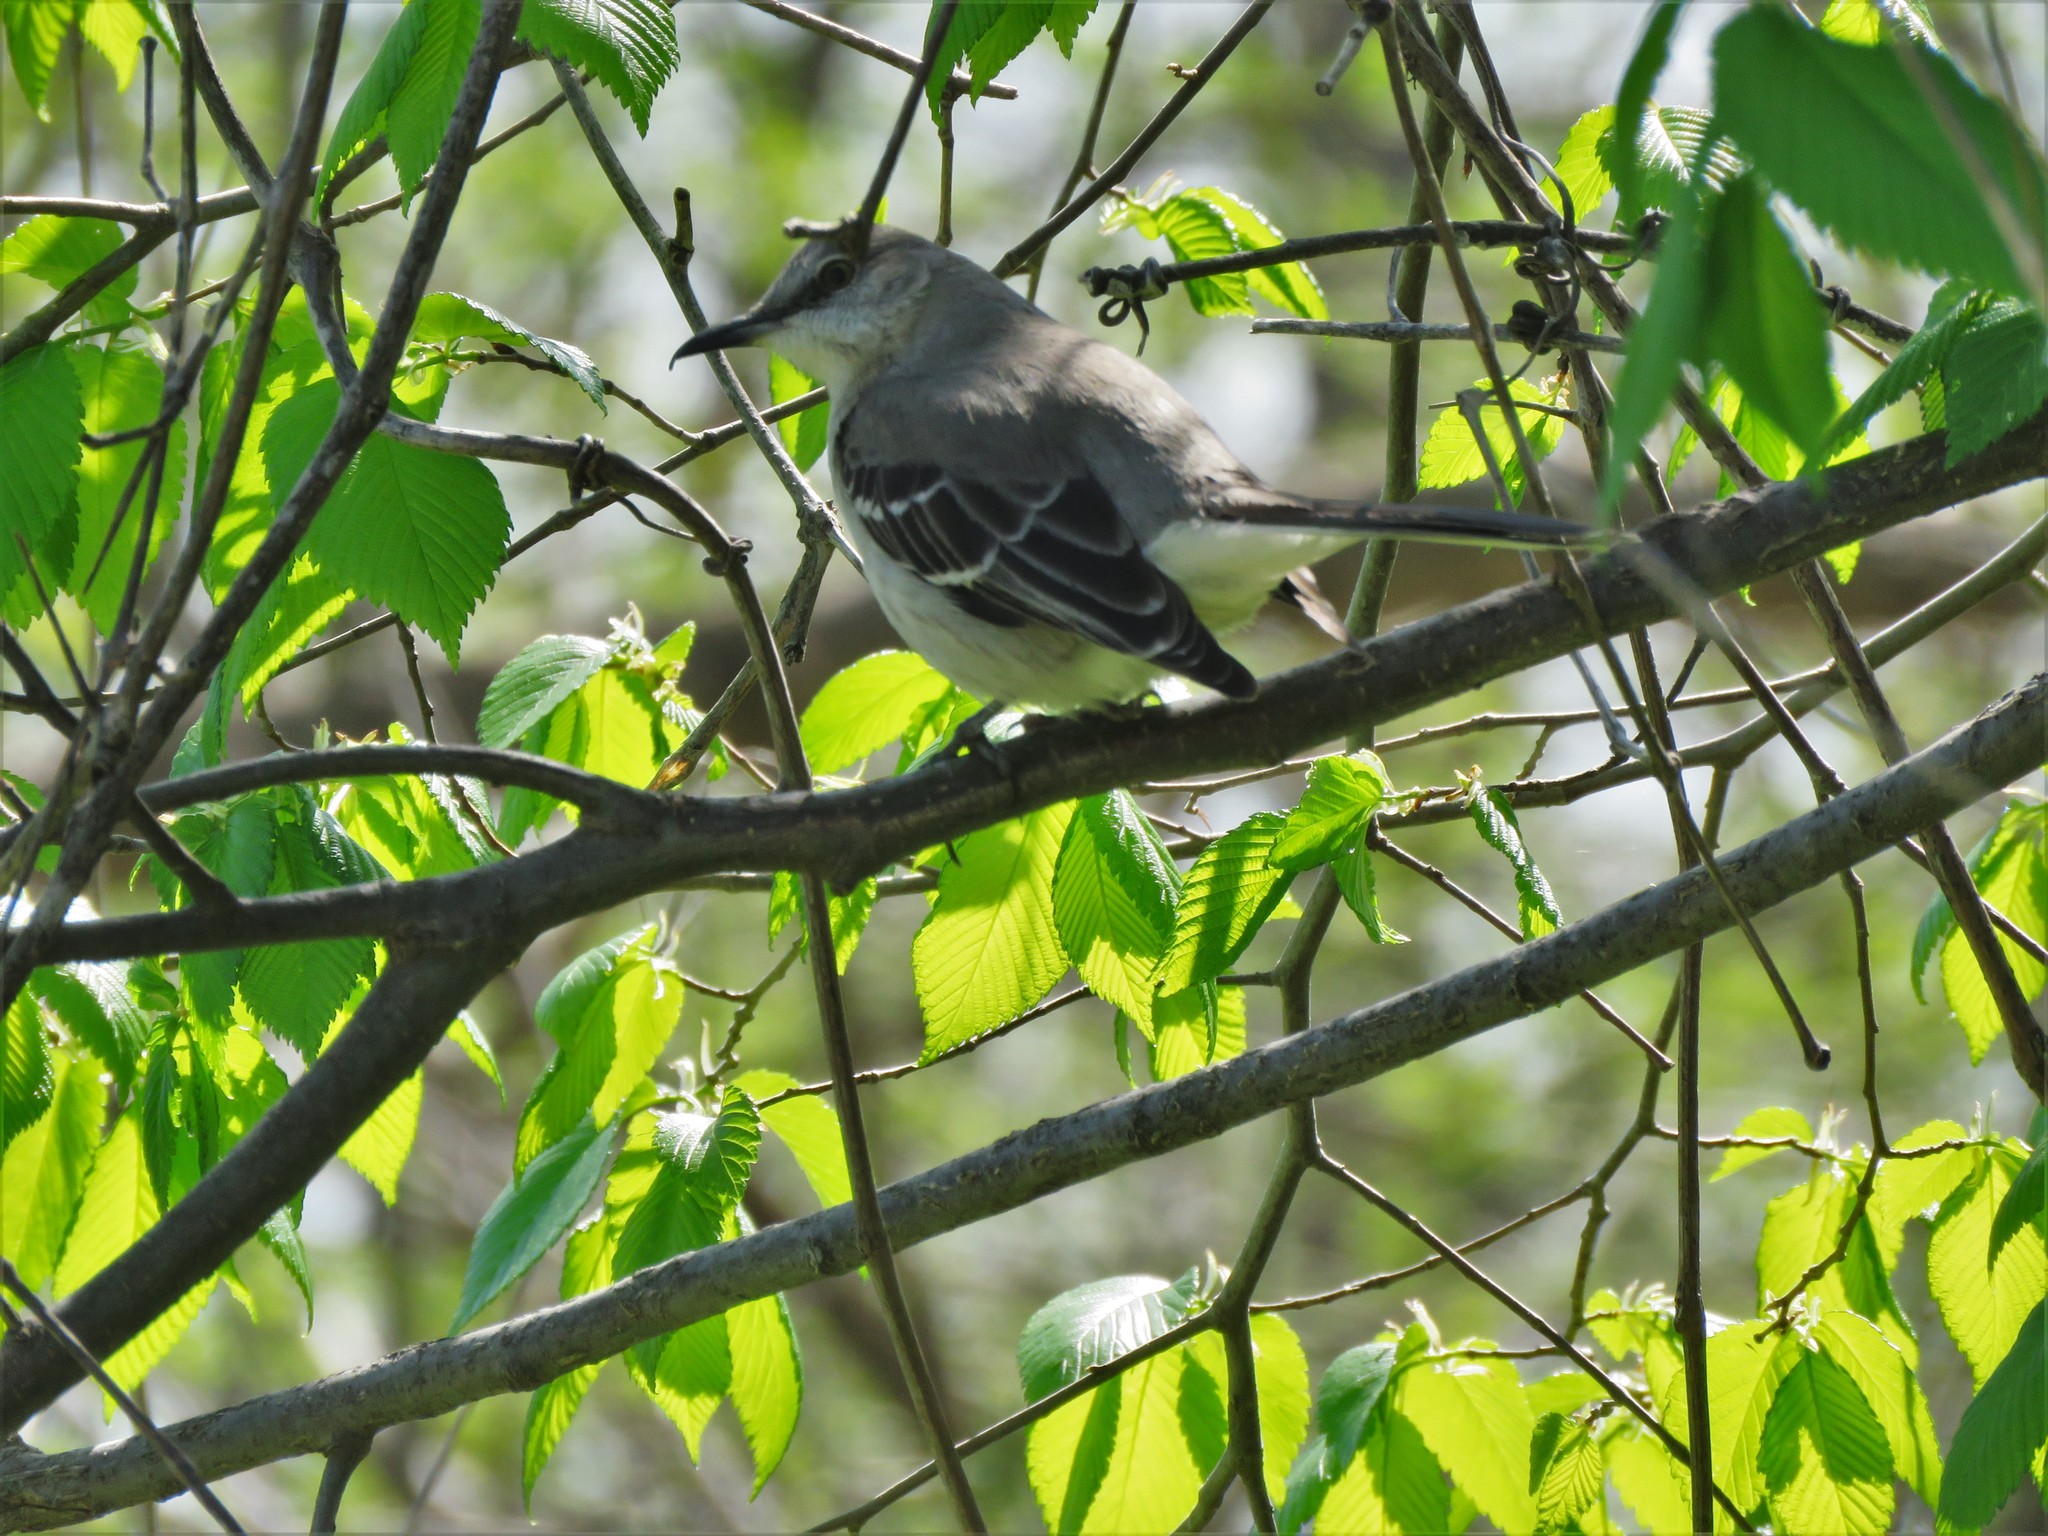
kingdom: Animalia
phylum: Chordata
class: Aves
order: Passeriformes
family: Mimidae
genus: Mimus
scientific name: Mimus polyglottos
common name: Northern mockingbird
